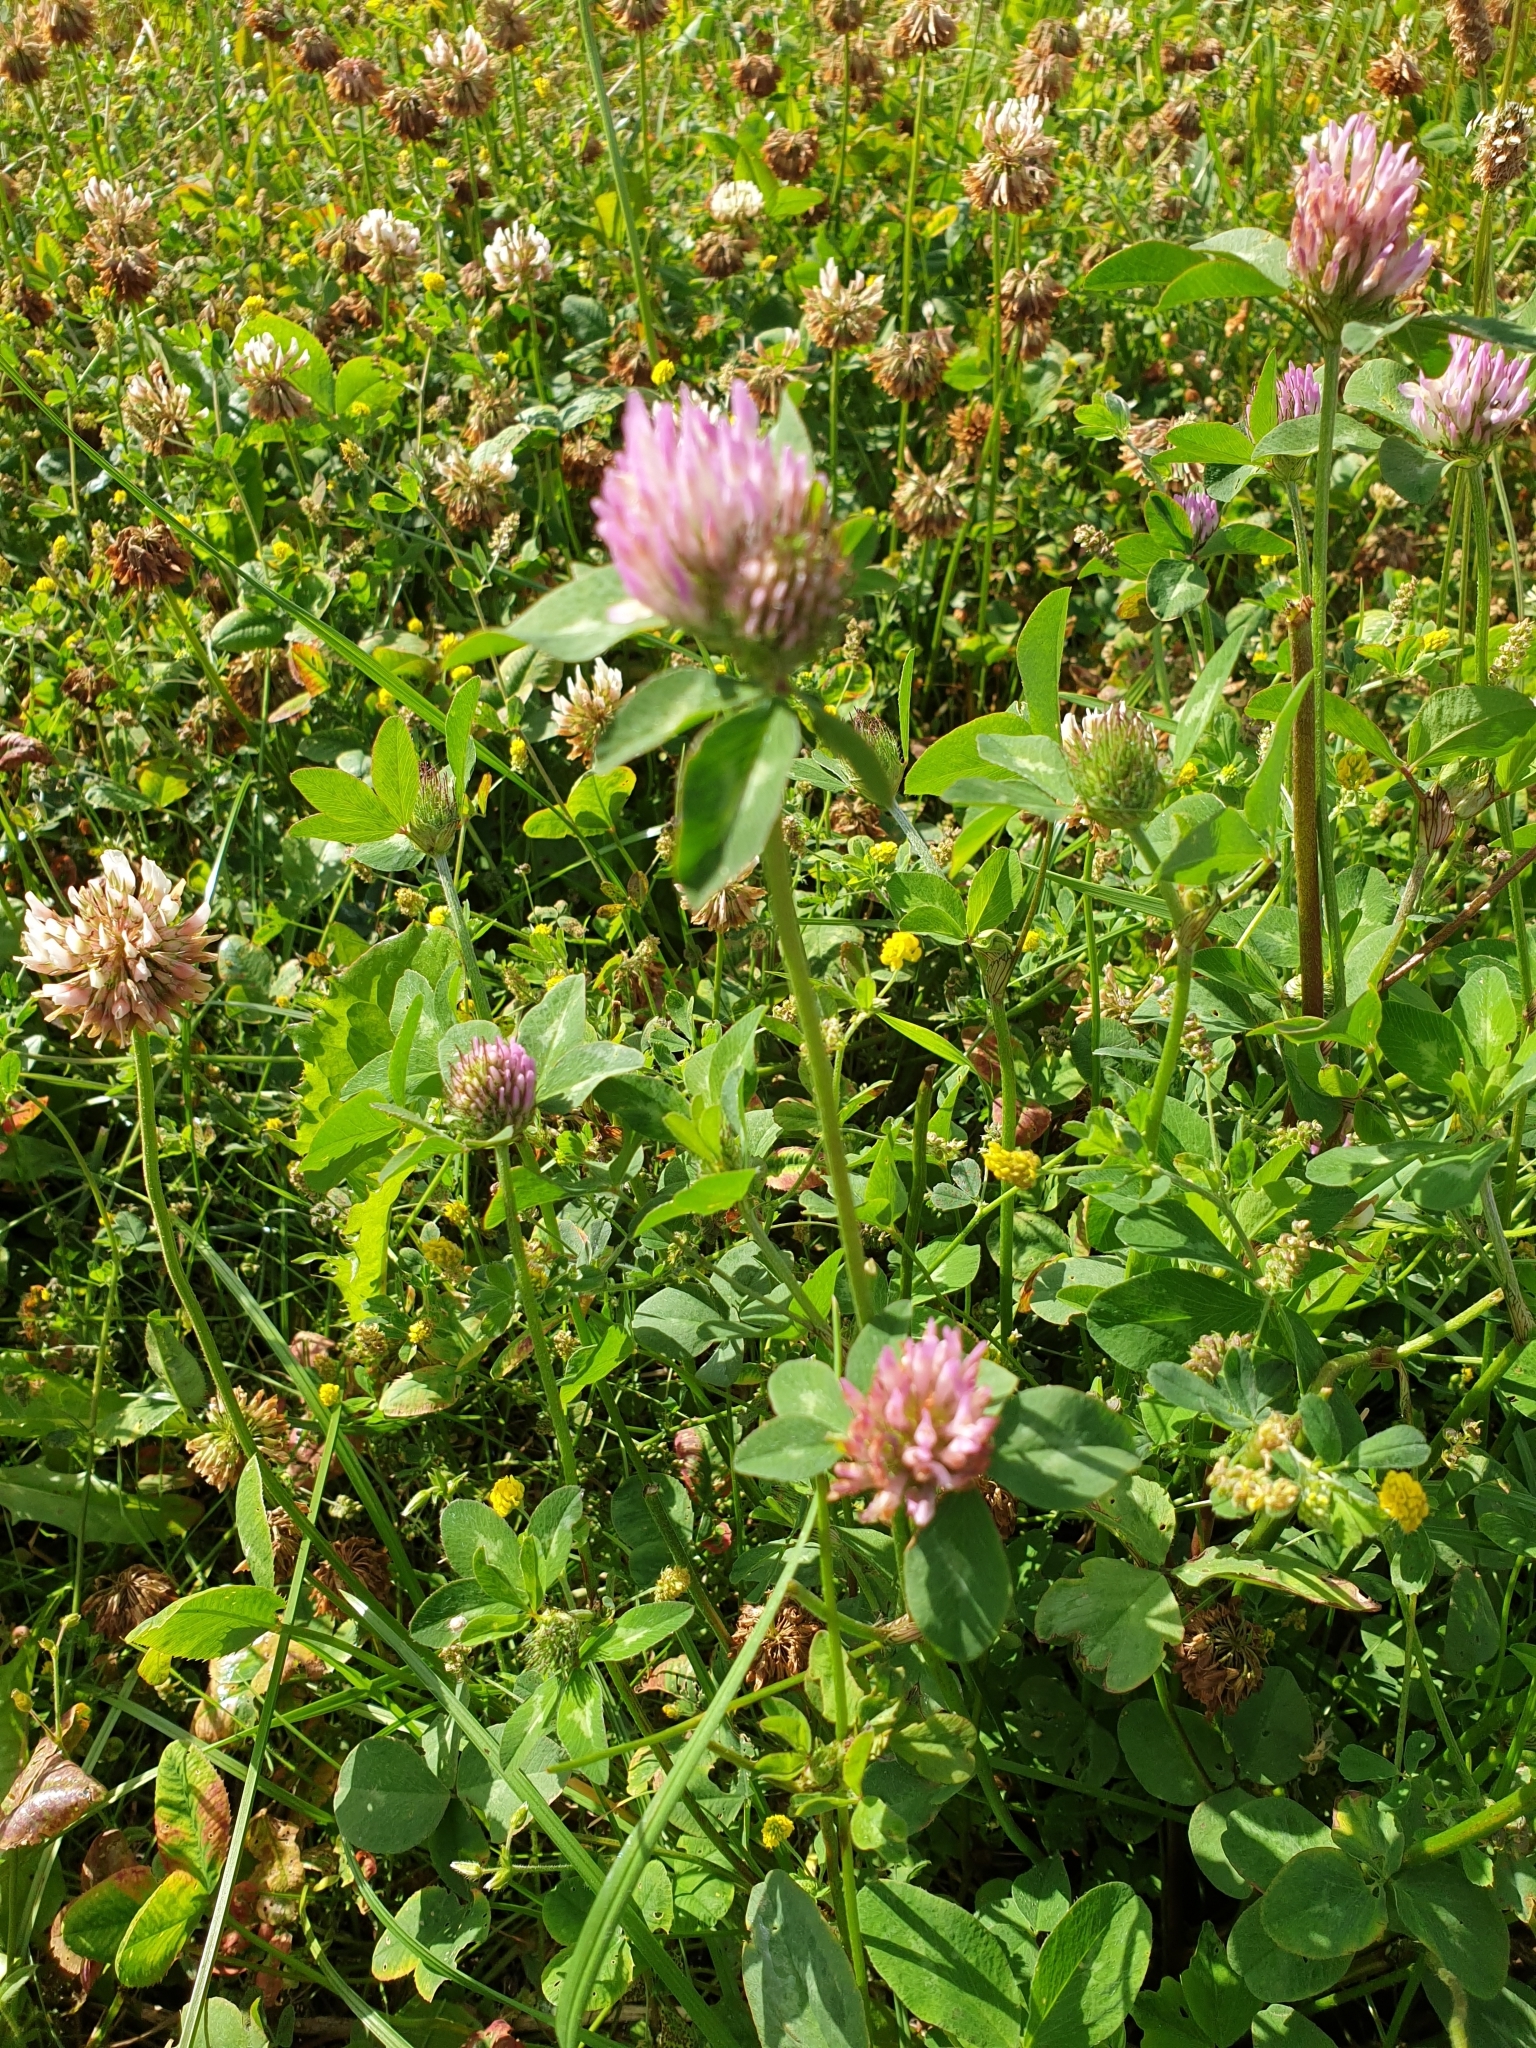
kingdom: Plantae
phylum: Tracheophyta
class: Magnoliopsida
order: Fabales
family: Fabaceae
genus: Trifolium
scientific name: Trifolium pratense
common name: Red clover
